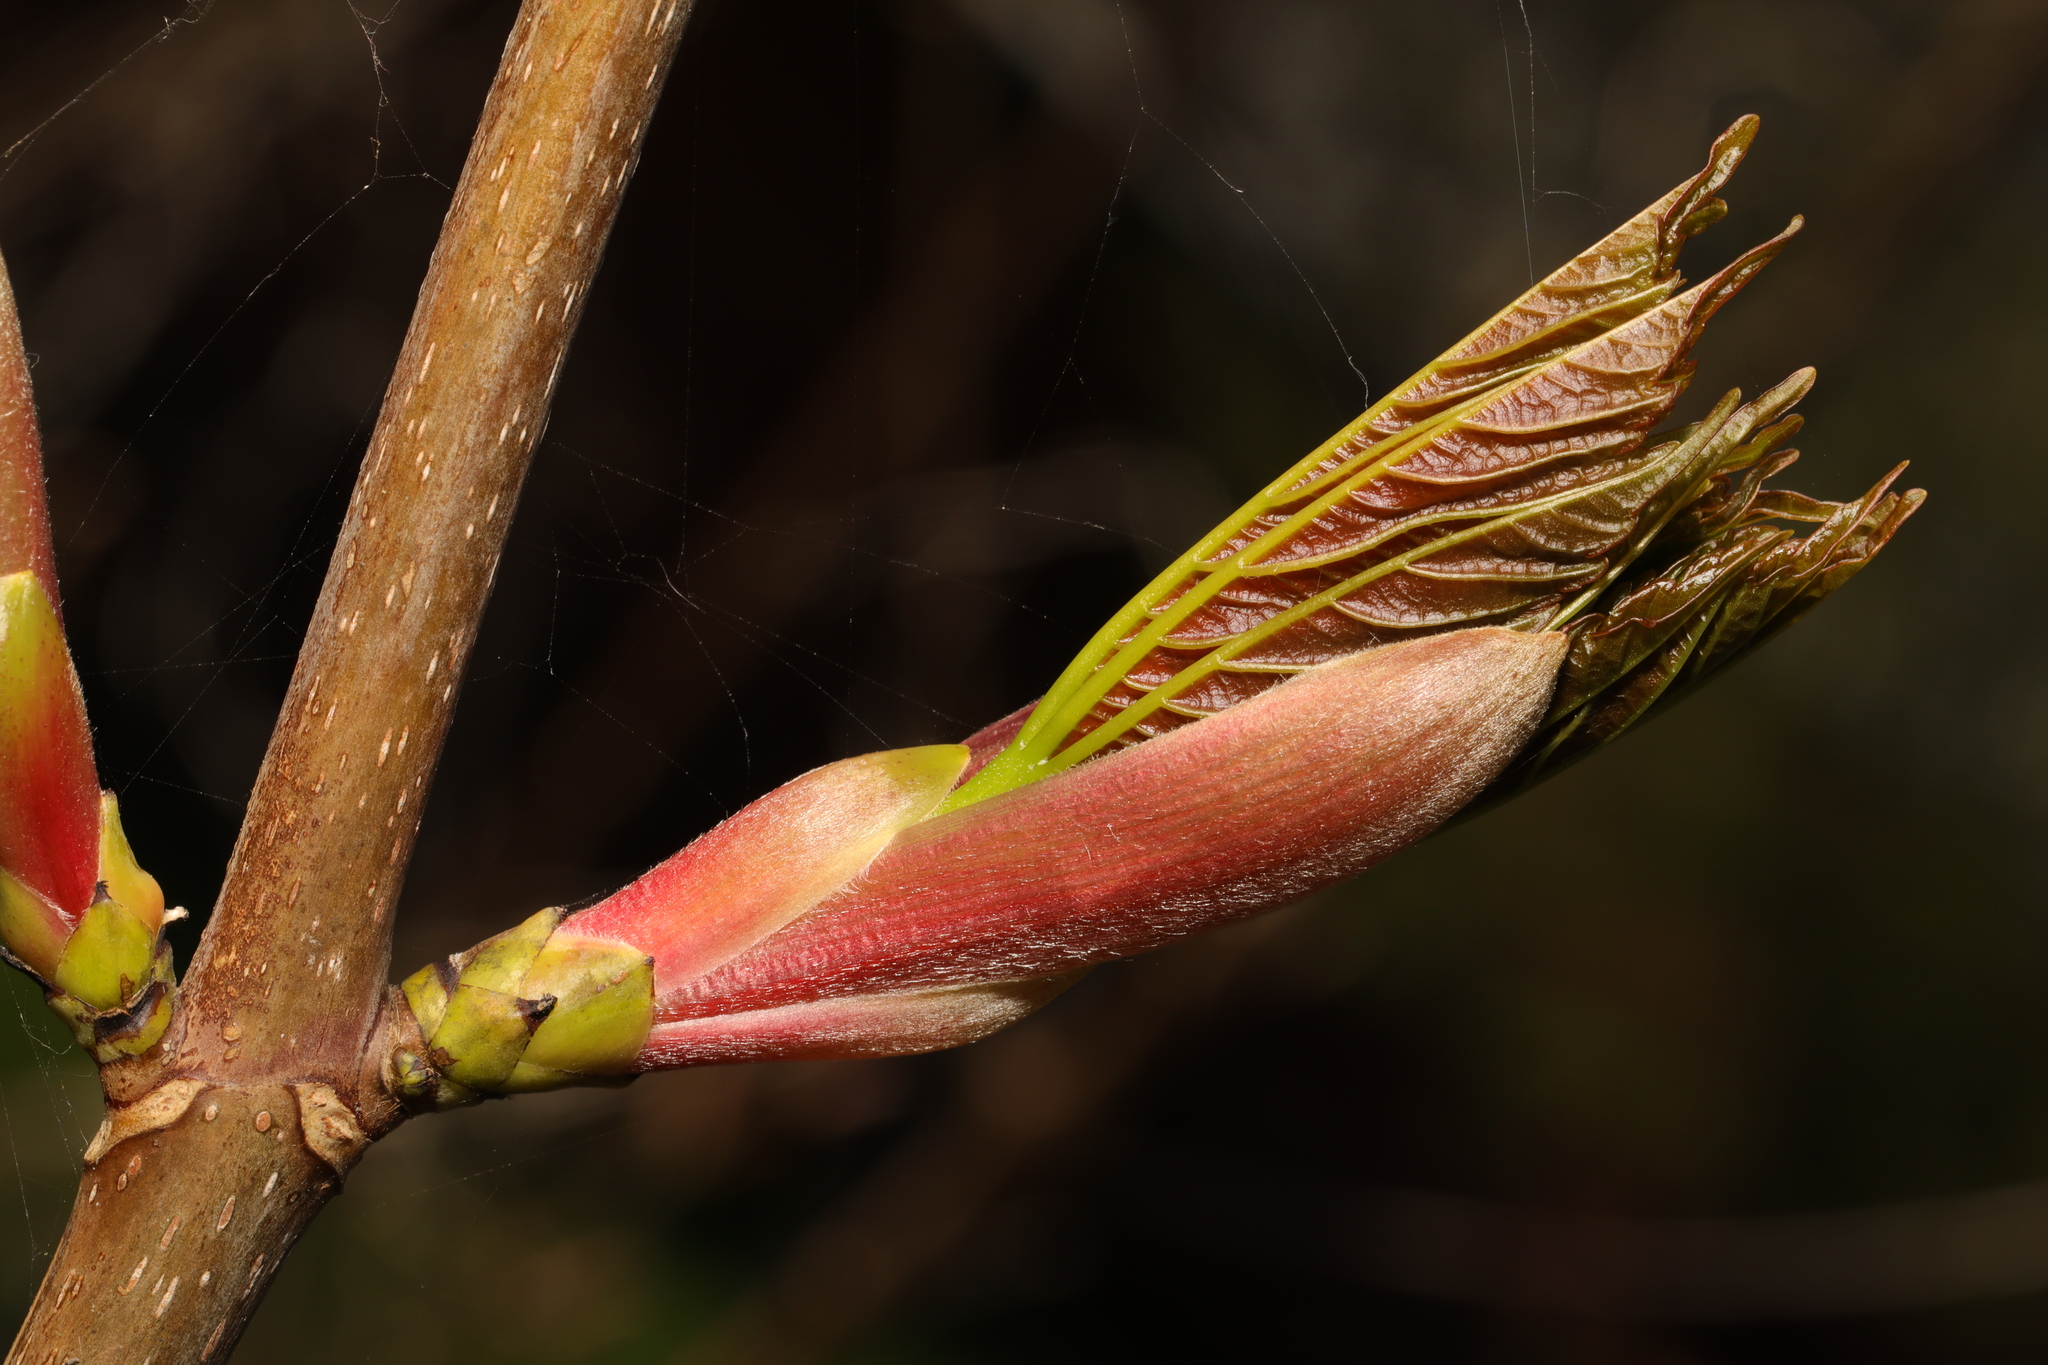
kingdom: Plantae
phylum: Tracheophyta
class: Magnoliopsida
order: Sapindales
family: Sapindaceae
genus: Acer
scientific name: Acer pseudoplatanus
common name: Sycamore
